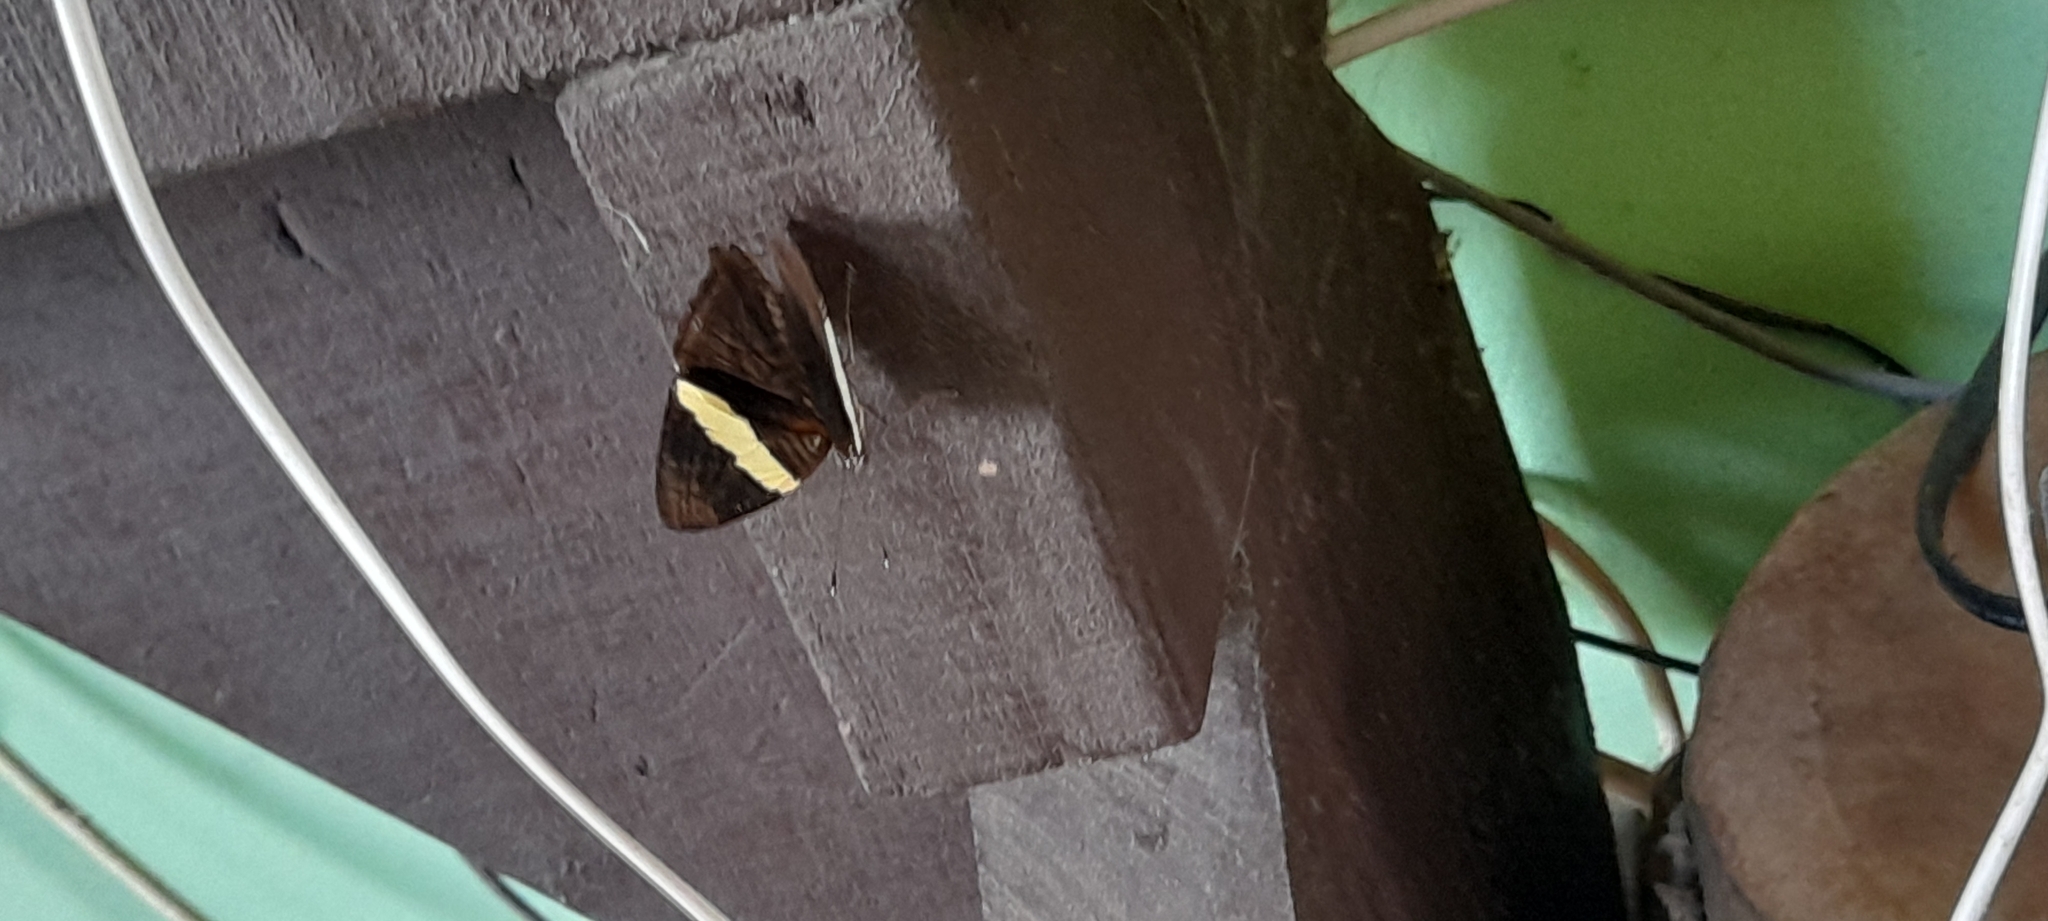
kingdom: Animalia
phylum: Arthropoda
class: Insecta
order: Lepidoptera
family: Nymphalidae
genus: Colobura
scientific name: Colobura dirce
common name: Dirce beauty
